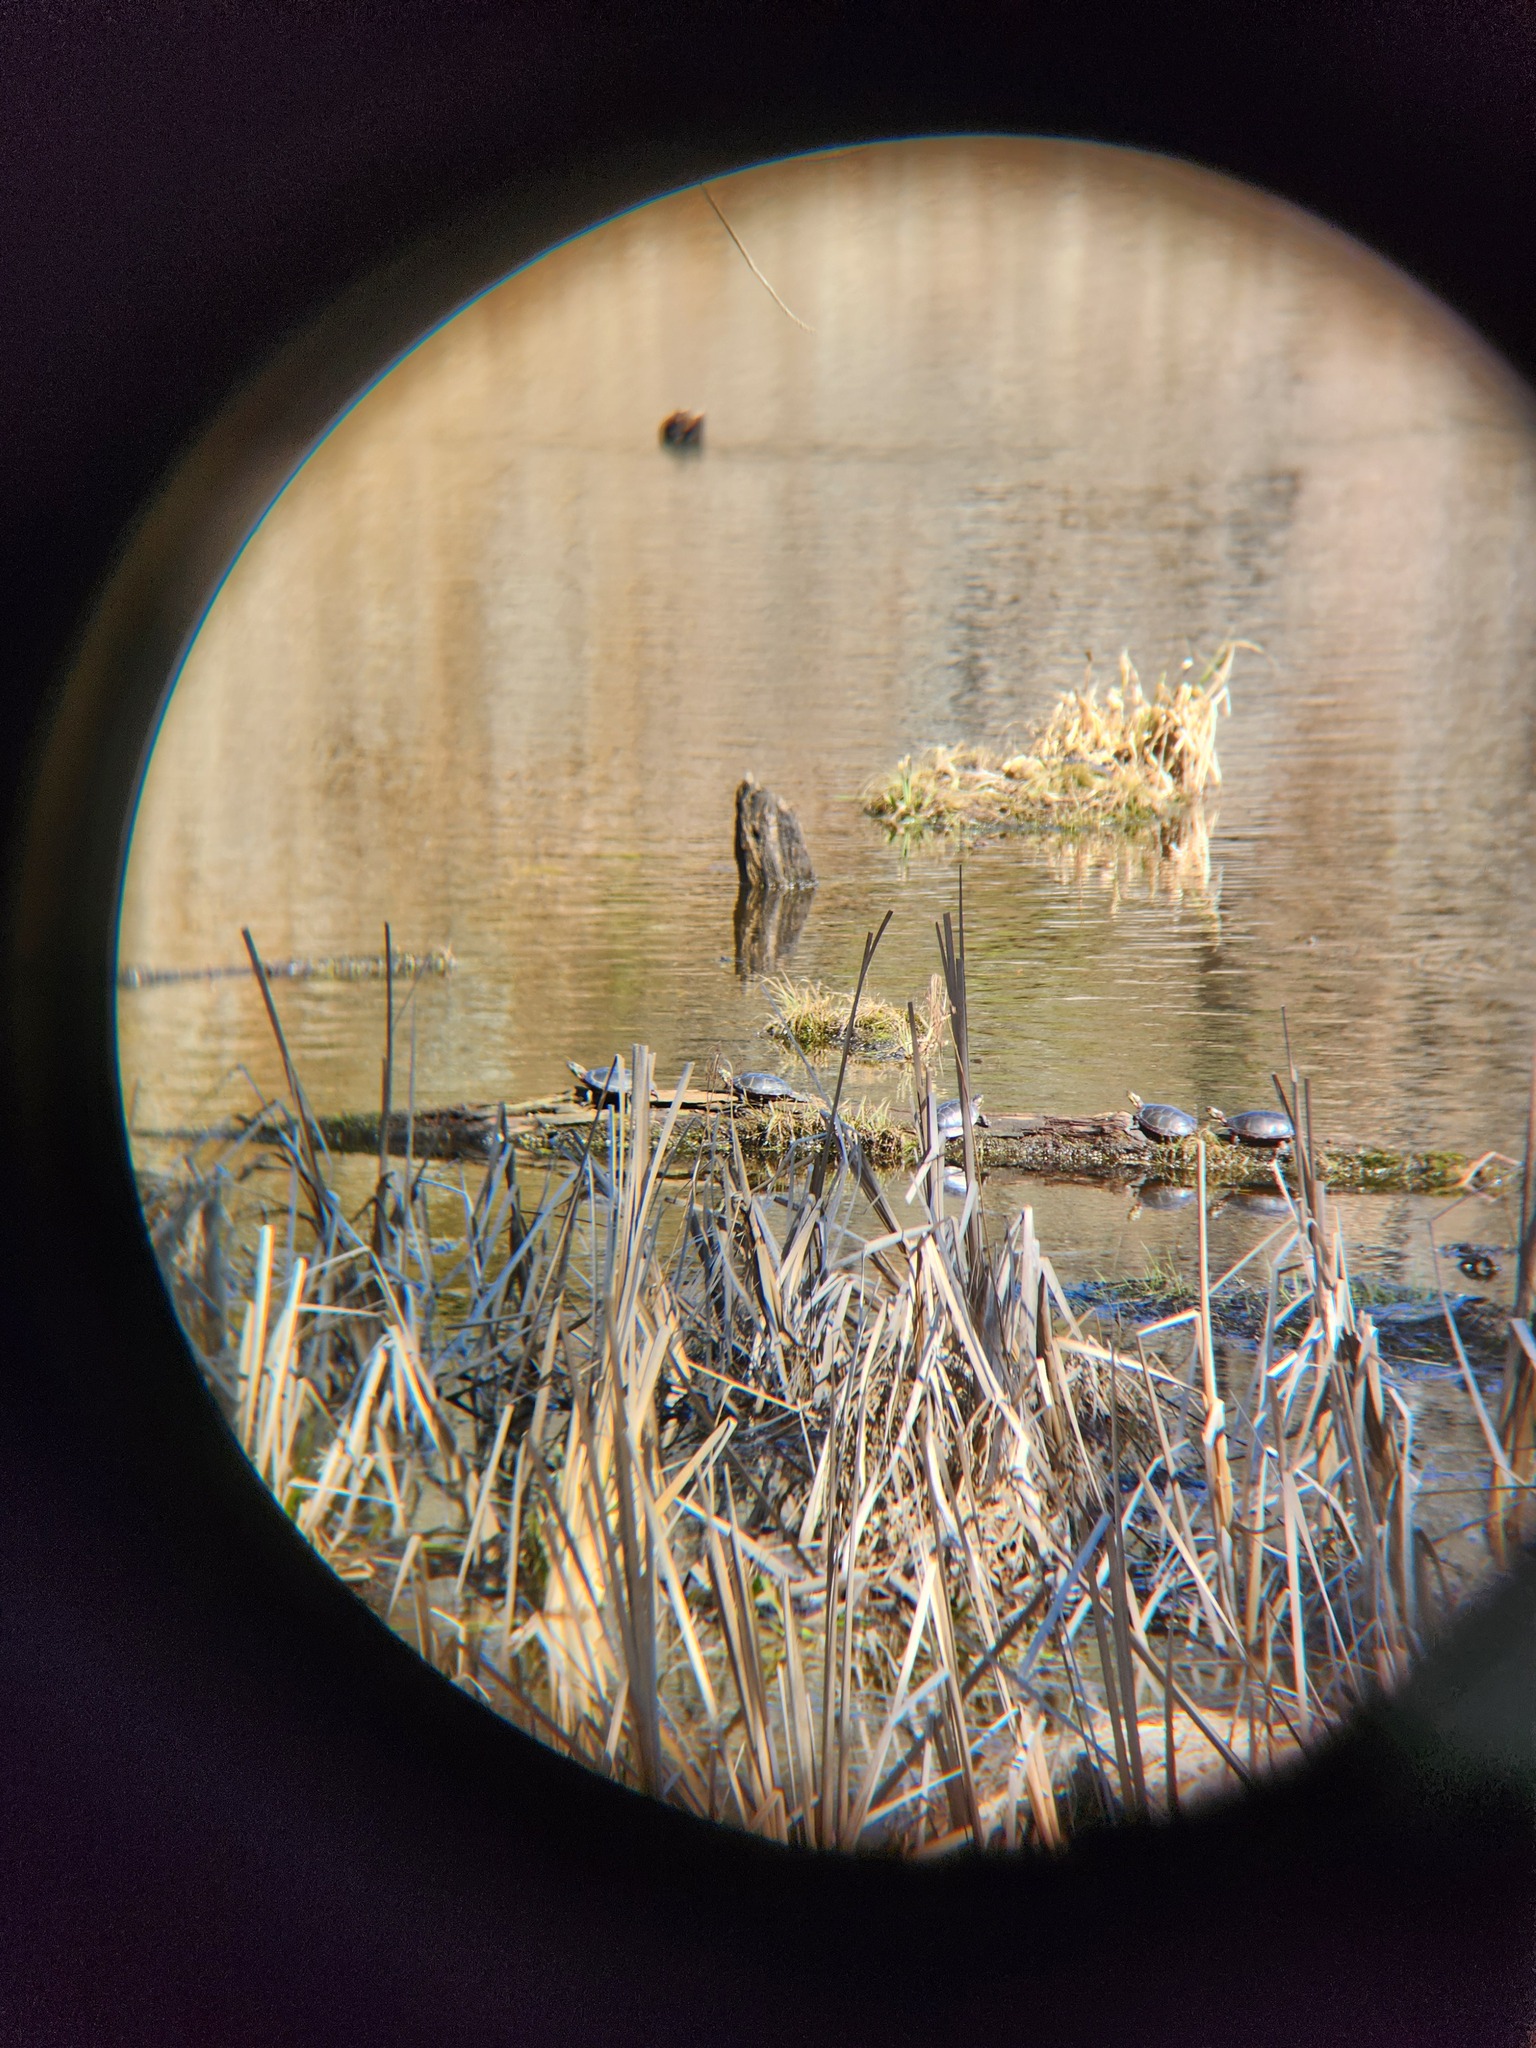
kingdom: Animalia
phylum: Chordata
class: Testudines
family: Emydidae
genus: Chrysemys
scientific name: Chrysemys picta
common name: Painted turtle
